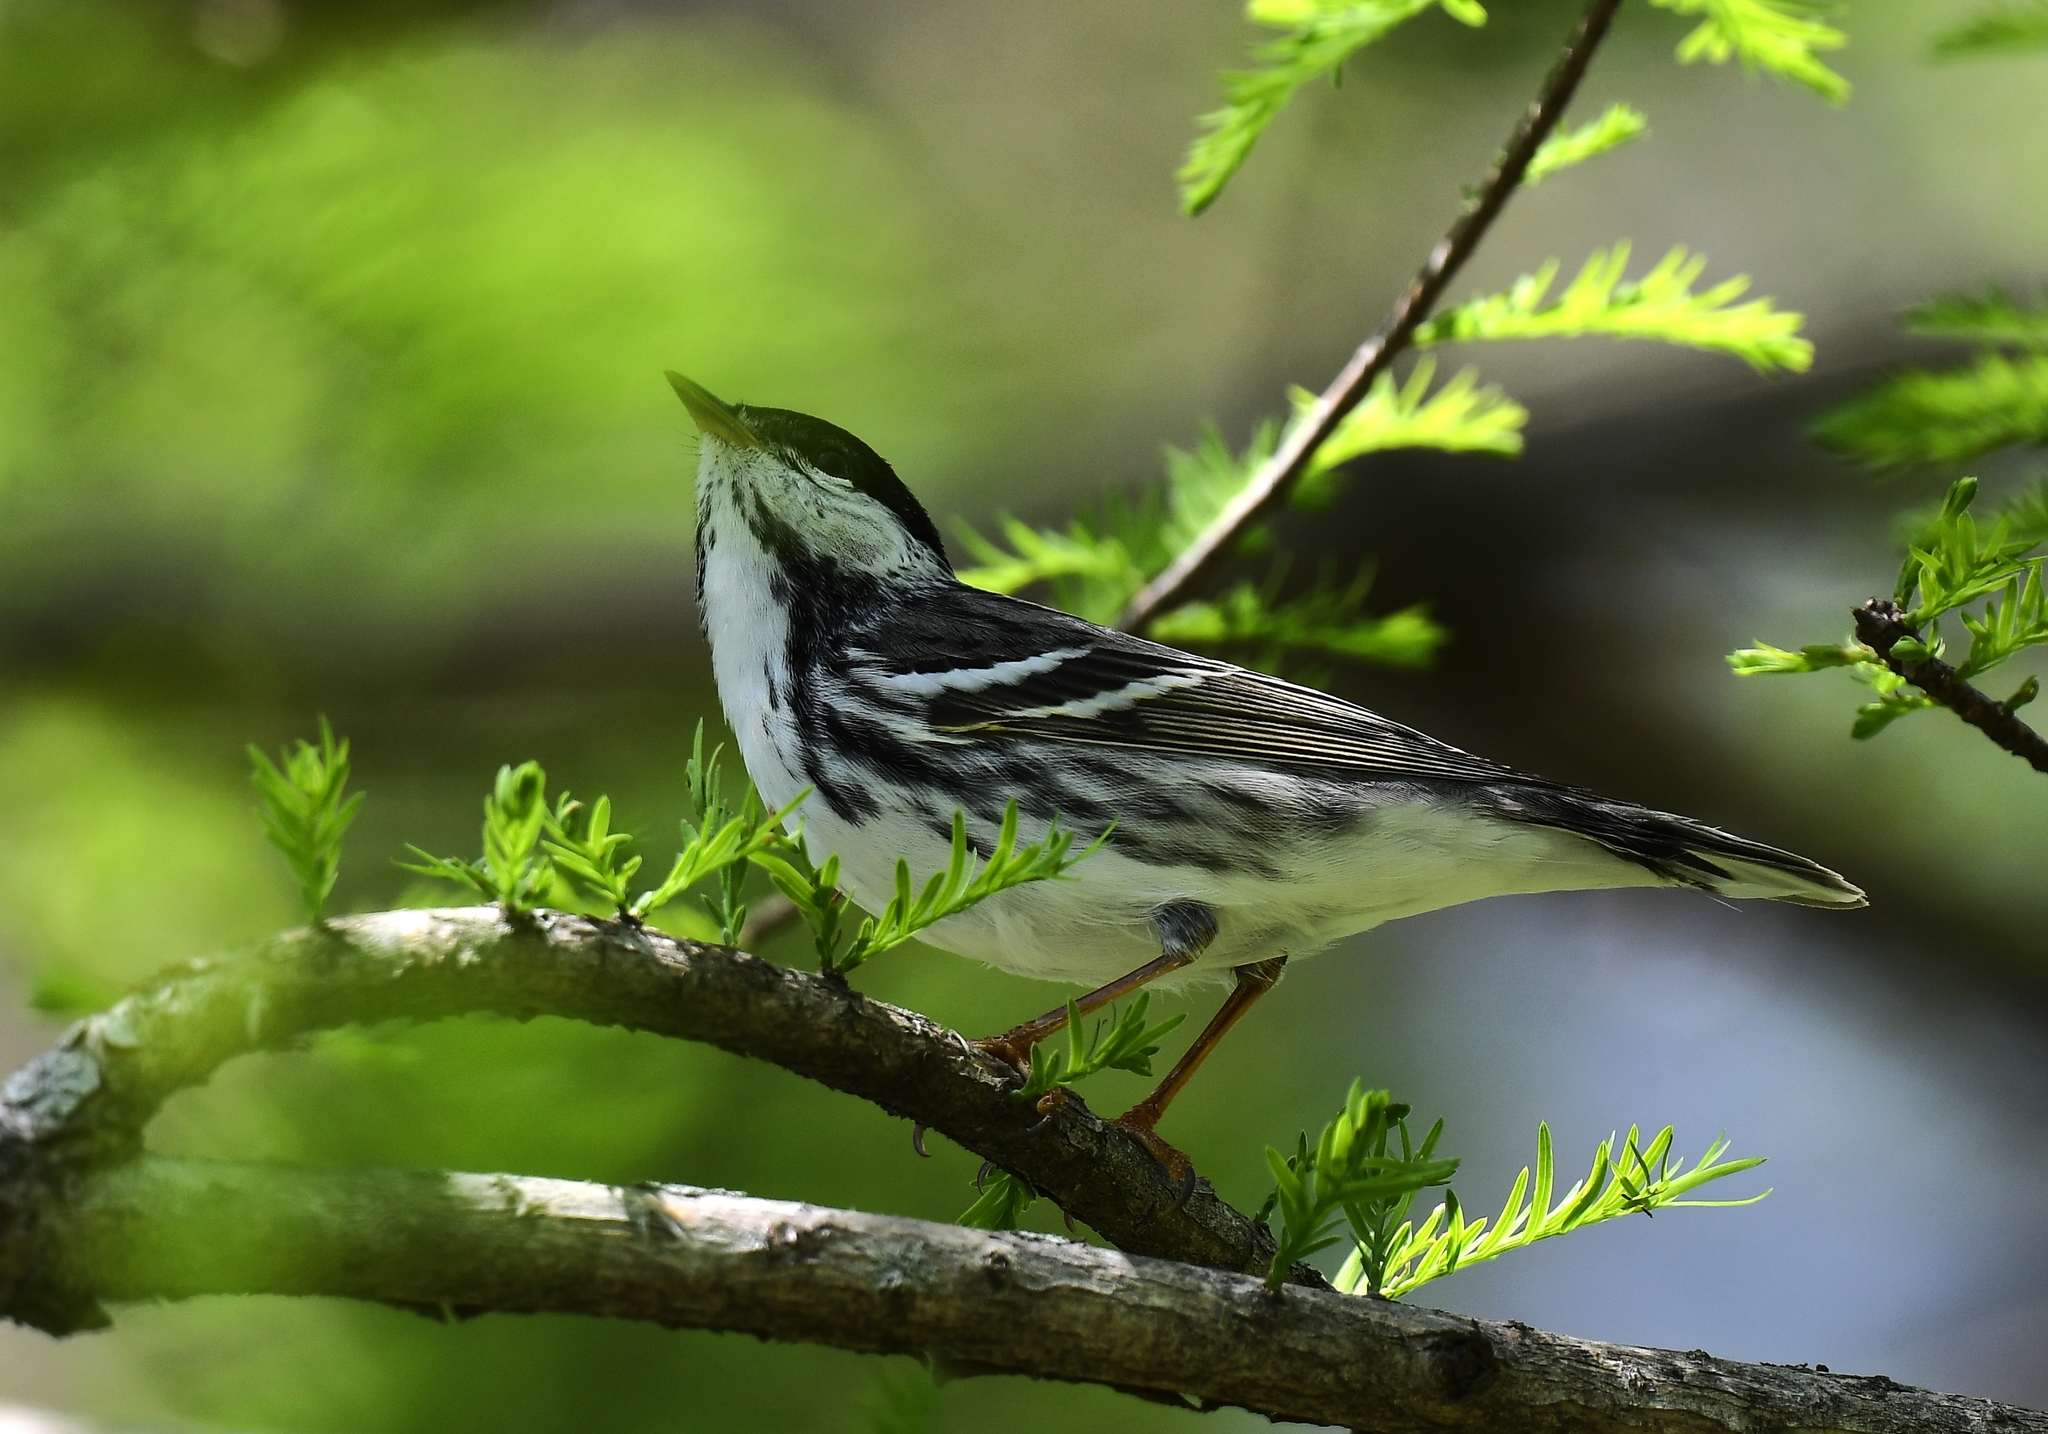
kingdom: Animalia
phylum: Chordata
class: Aves
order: Passeriformes
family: Parulidae
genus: Setophaga
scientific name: Setophaga striata
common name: Blackpoll warbler
